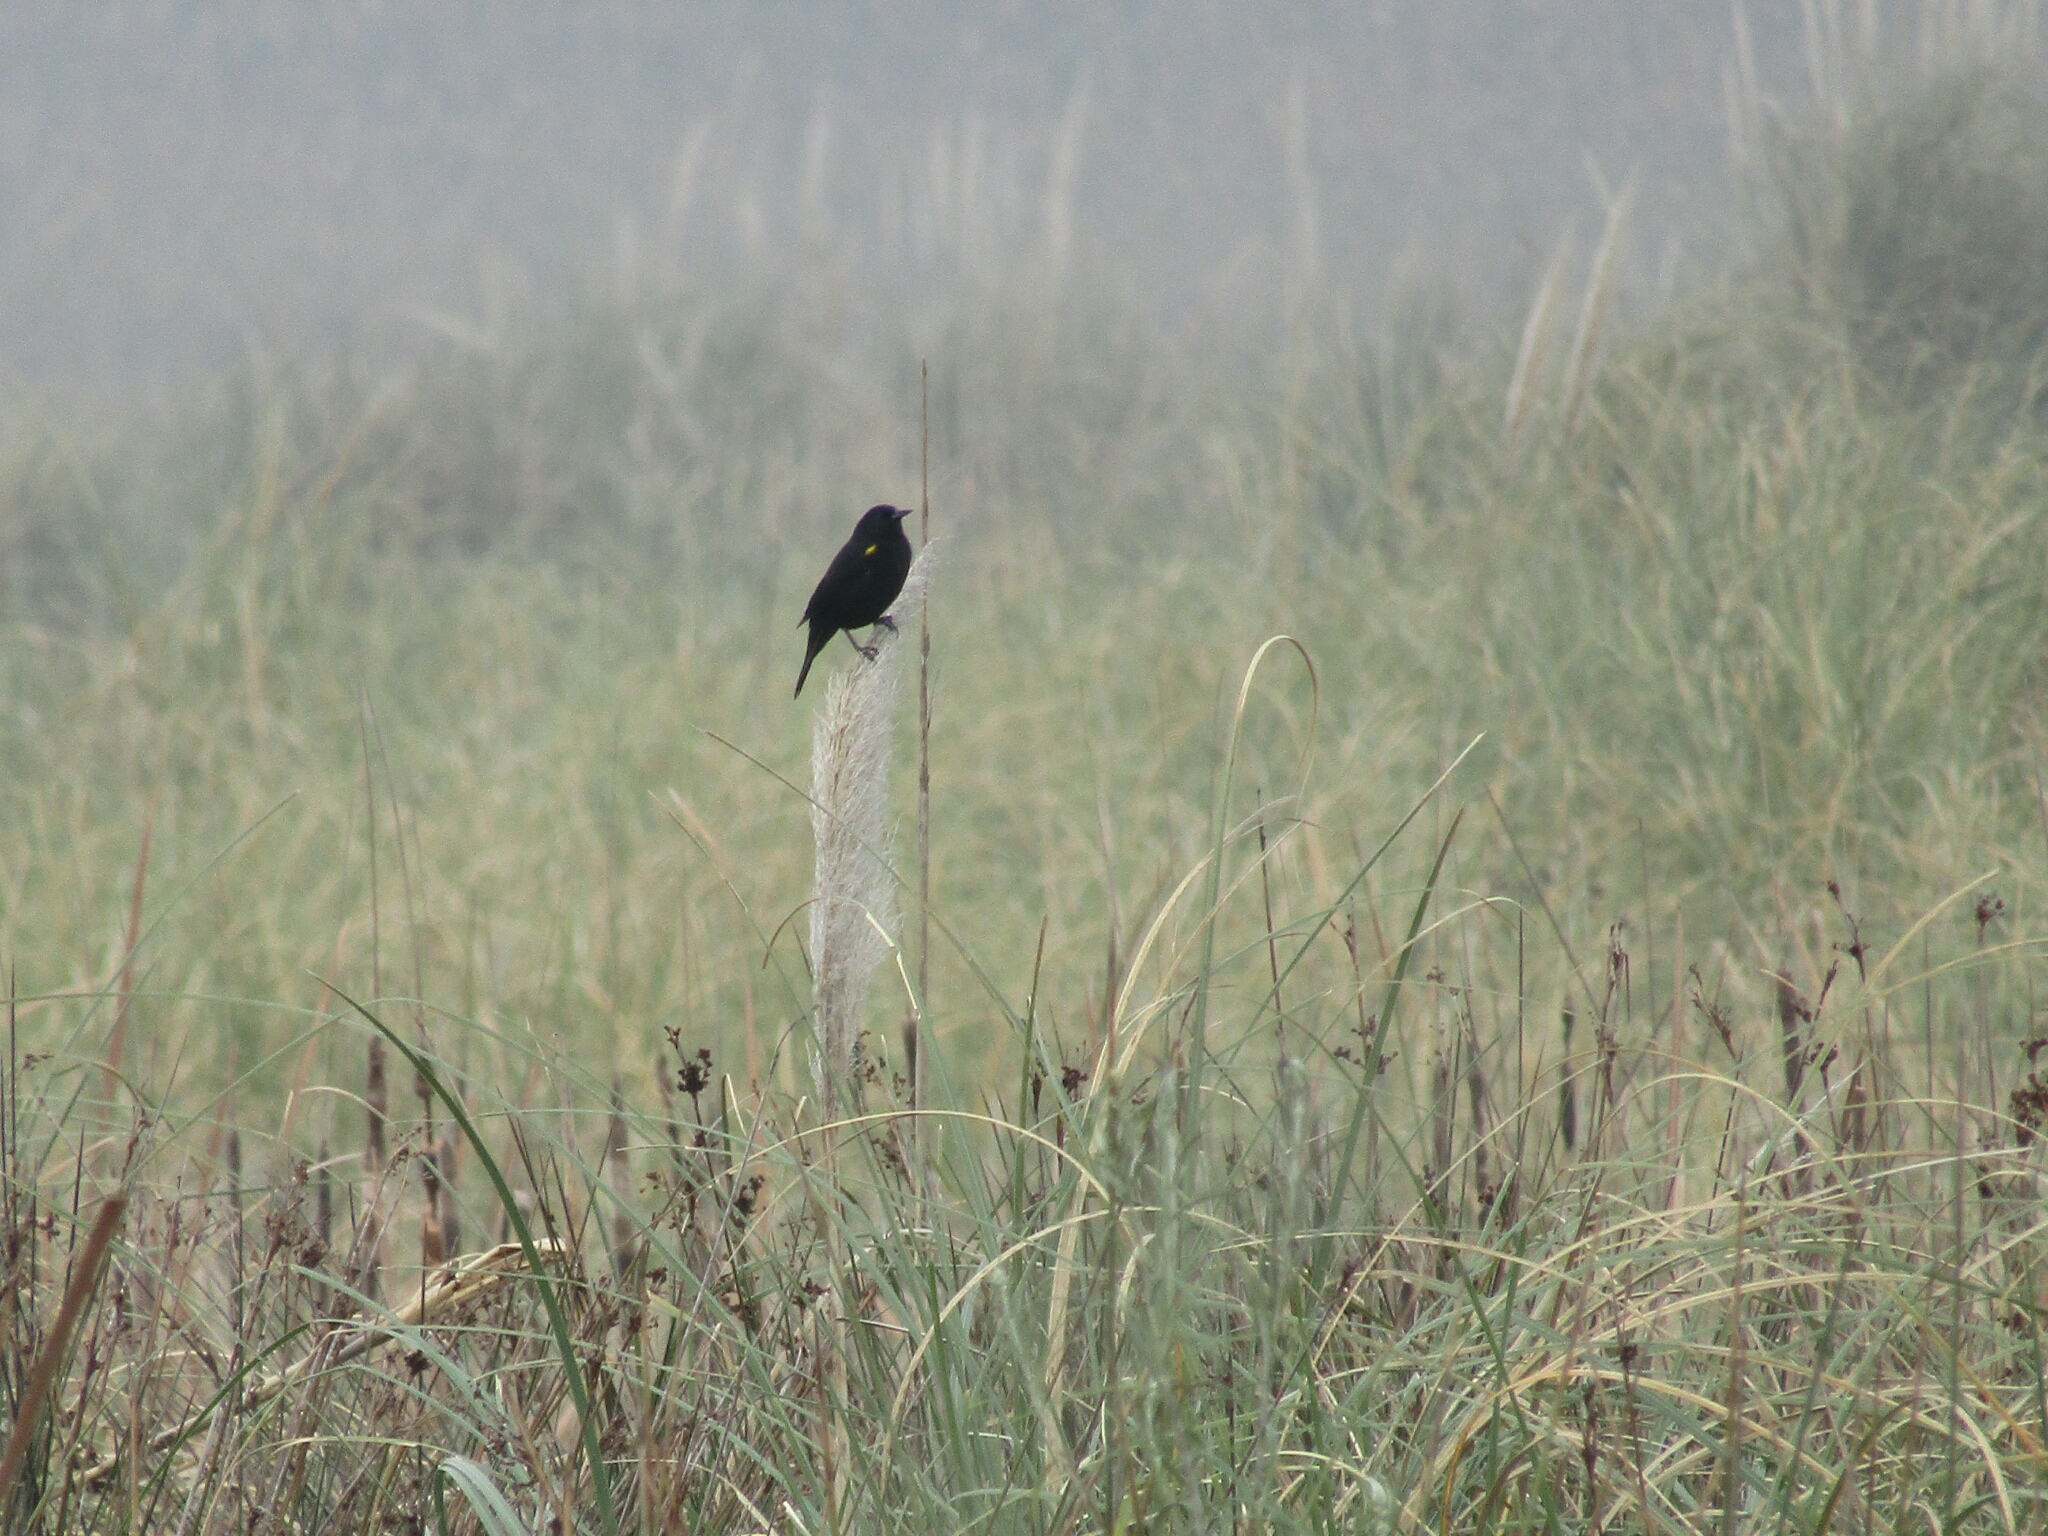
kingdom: Animalia
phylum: Chordata
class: Aves
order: Passeriformes
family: Icteridae
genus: Agelasticus
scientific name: Agelasticus thilius
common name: Yellow-winged blackbird
